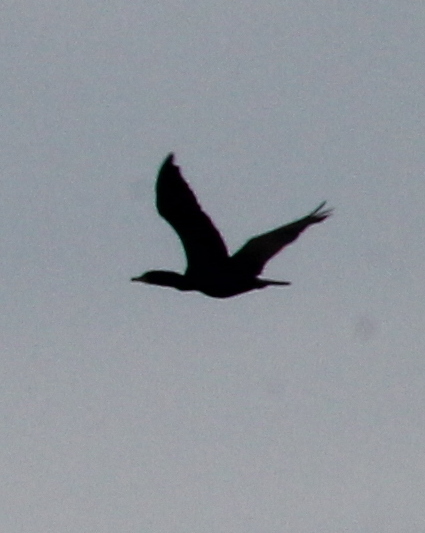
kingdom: Animalia
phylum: Chordata
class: Aves
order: Suliformes
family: Phalacrocoracidae
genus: Phalacrocorax
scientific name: Phalacrocorax auritus
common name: Double-crested cormorant
